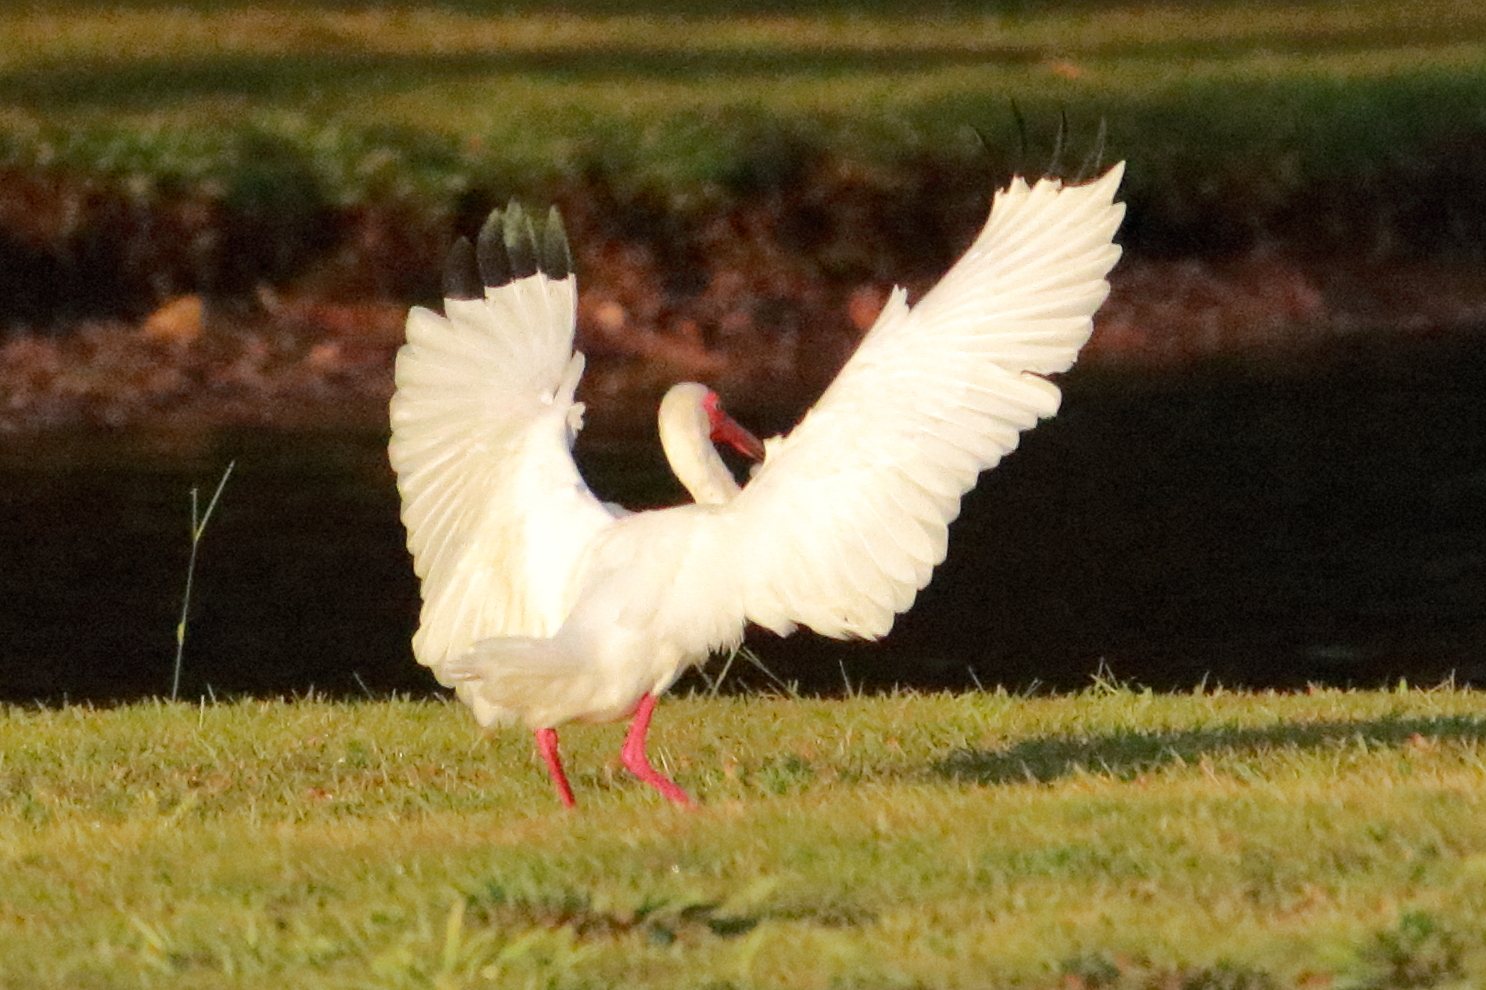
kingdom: Animalia
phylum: Chordata
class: Aves
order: Pelecaniformes
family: Threskiornithidae
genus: Eudocimus
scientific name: Eudocimus albus
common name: White ibis
